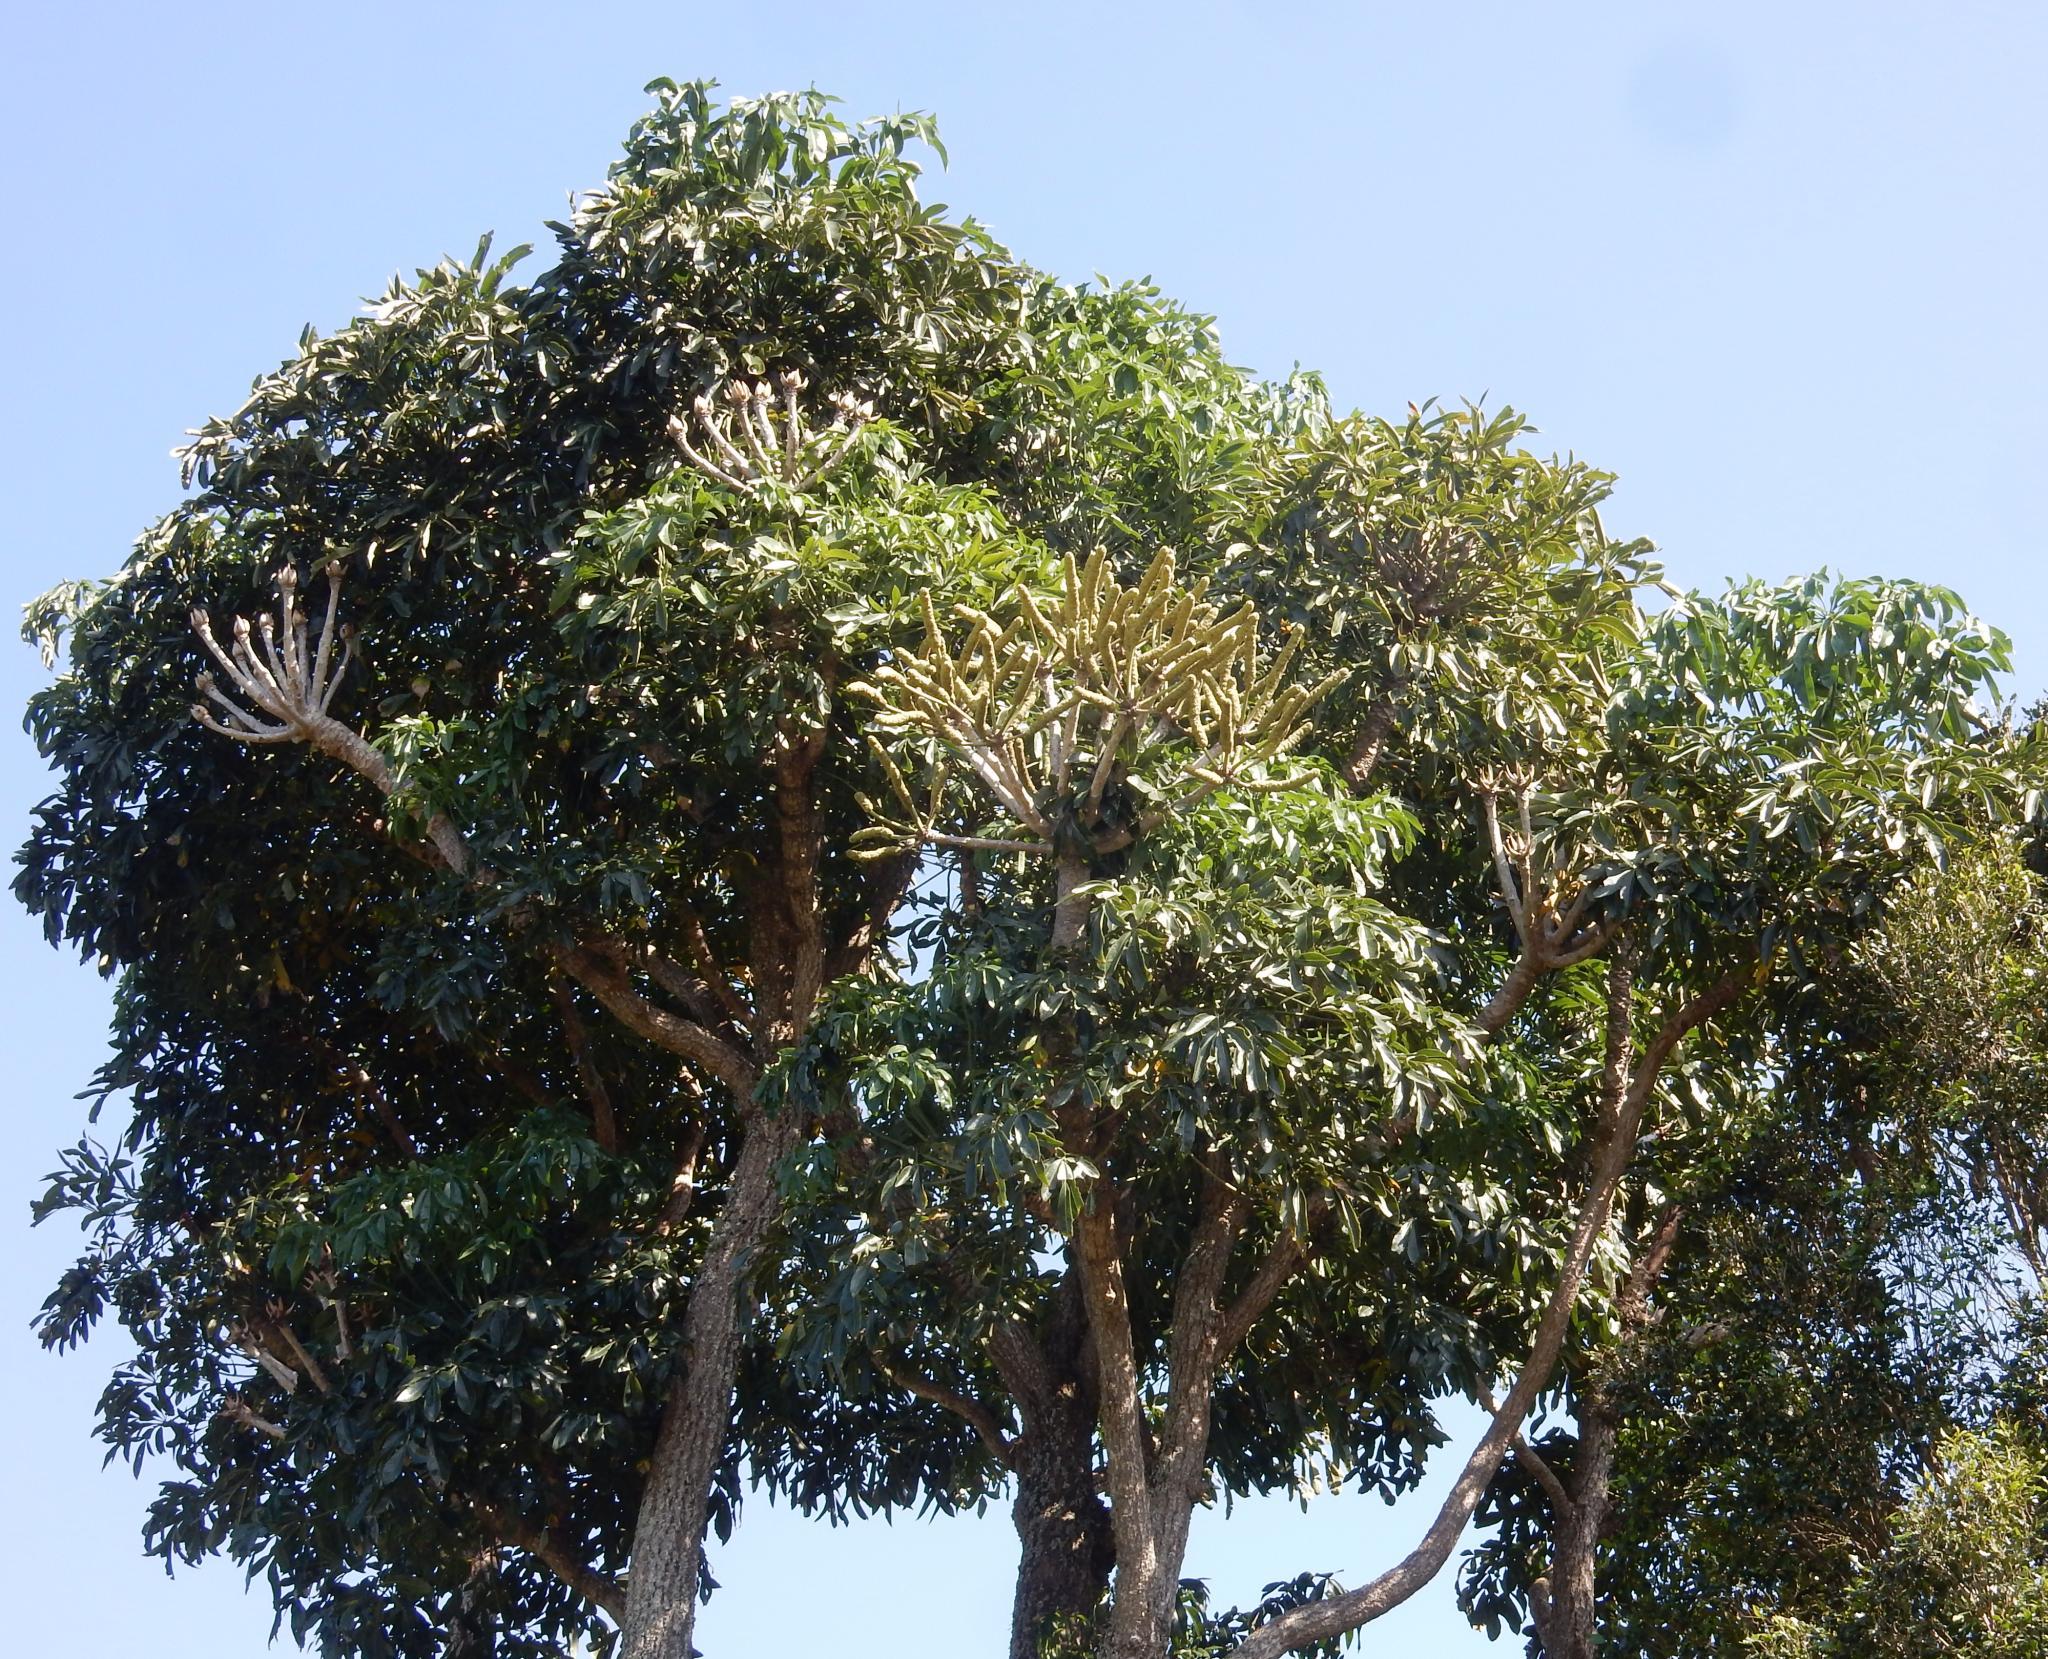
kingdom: Plantae
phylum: Tracheophyta
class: Magnoliopsida
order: Apiales
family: Araliaceae
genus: Cussonia
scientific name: Cussonia spicata
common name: Common cabbagetree
